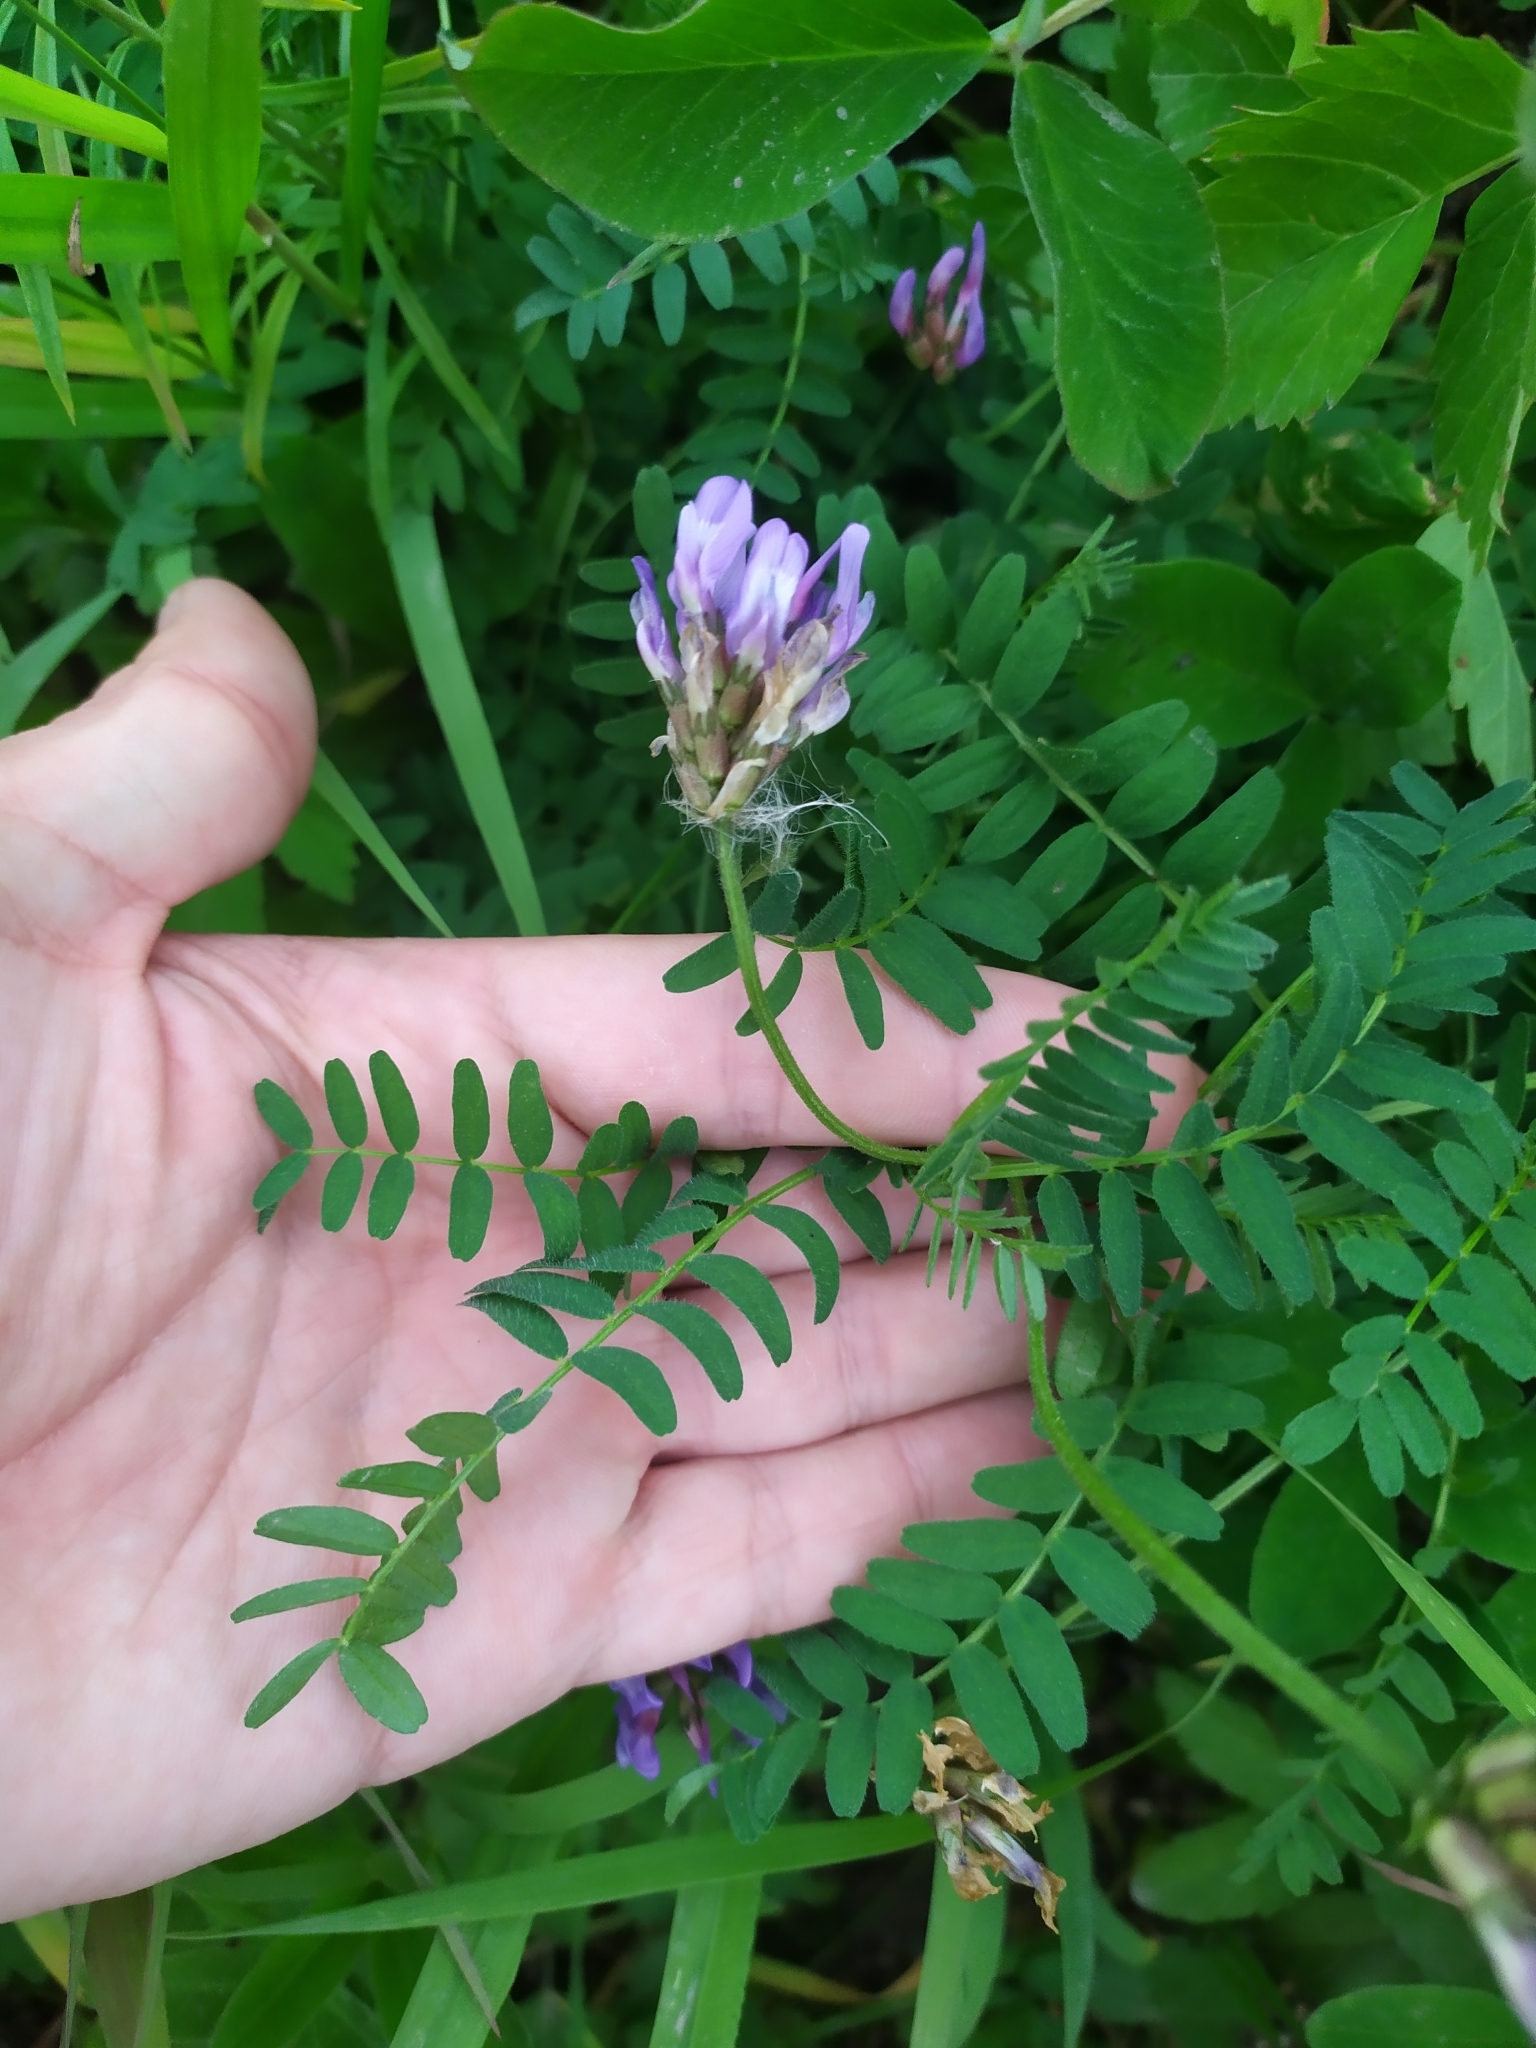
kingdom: Plantae
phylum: Tracheophyta
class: Magnoliopsida
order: Fabales
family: Fabaceae
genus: Astragalus
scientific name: Astragalus danicus
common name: Purple milk-vetch
